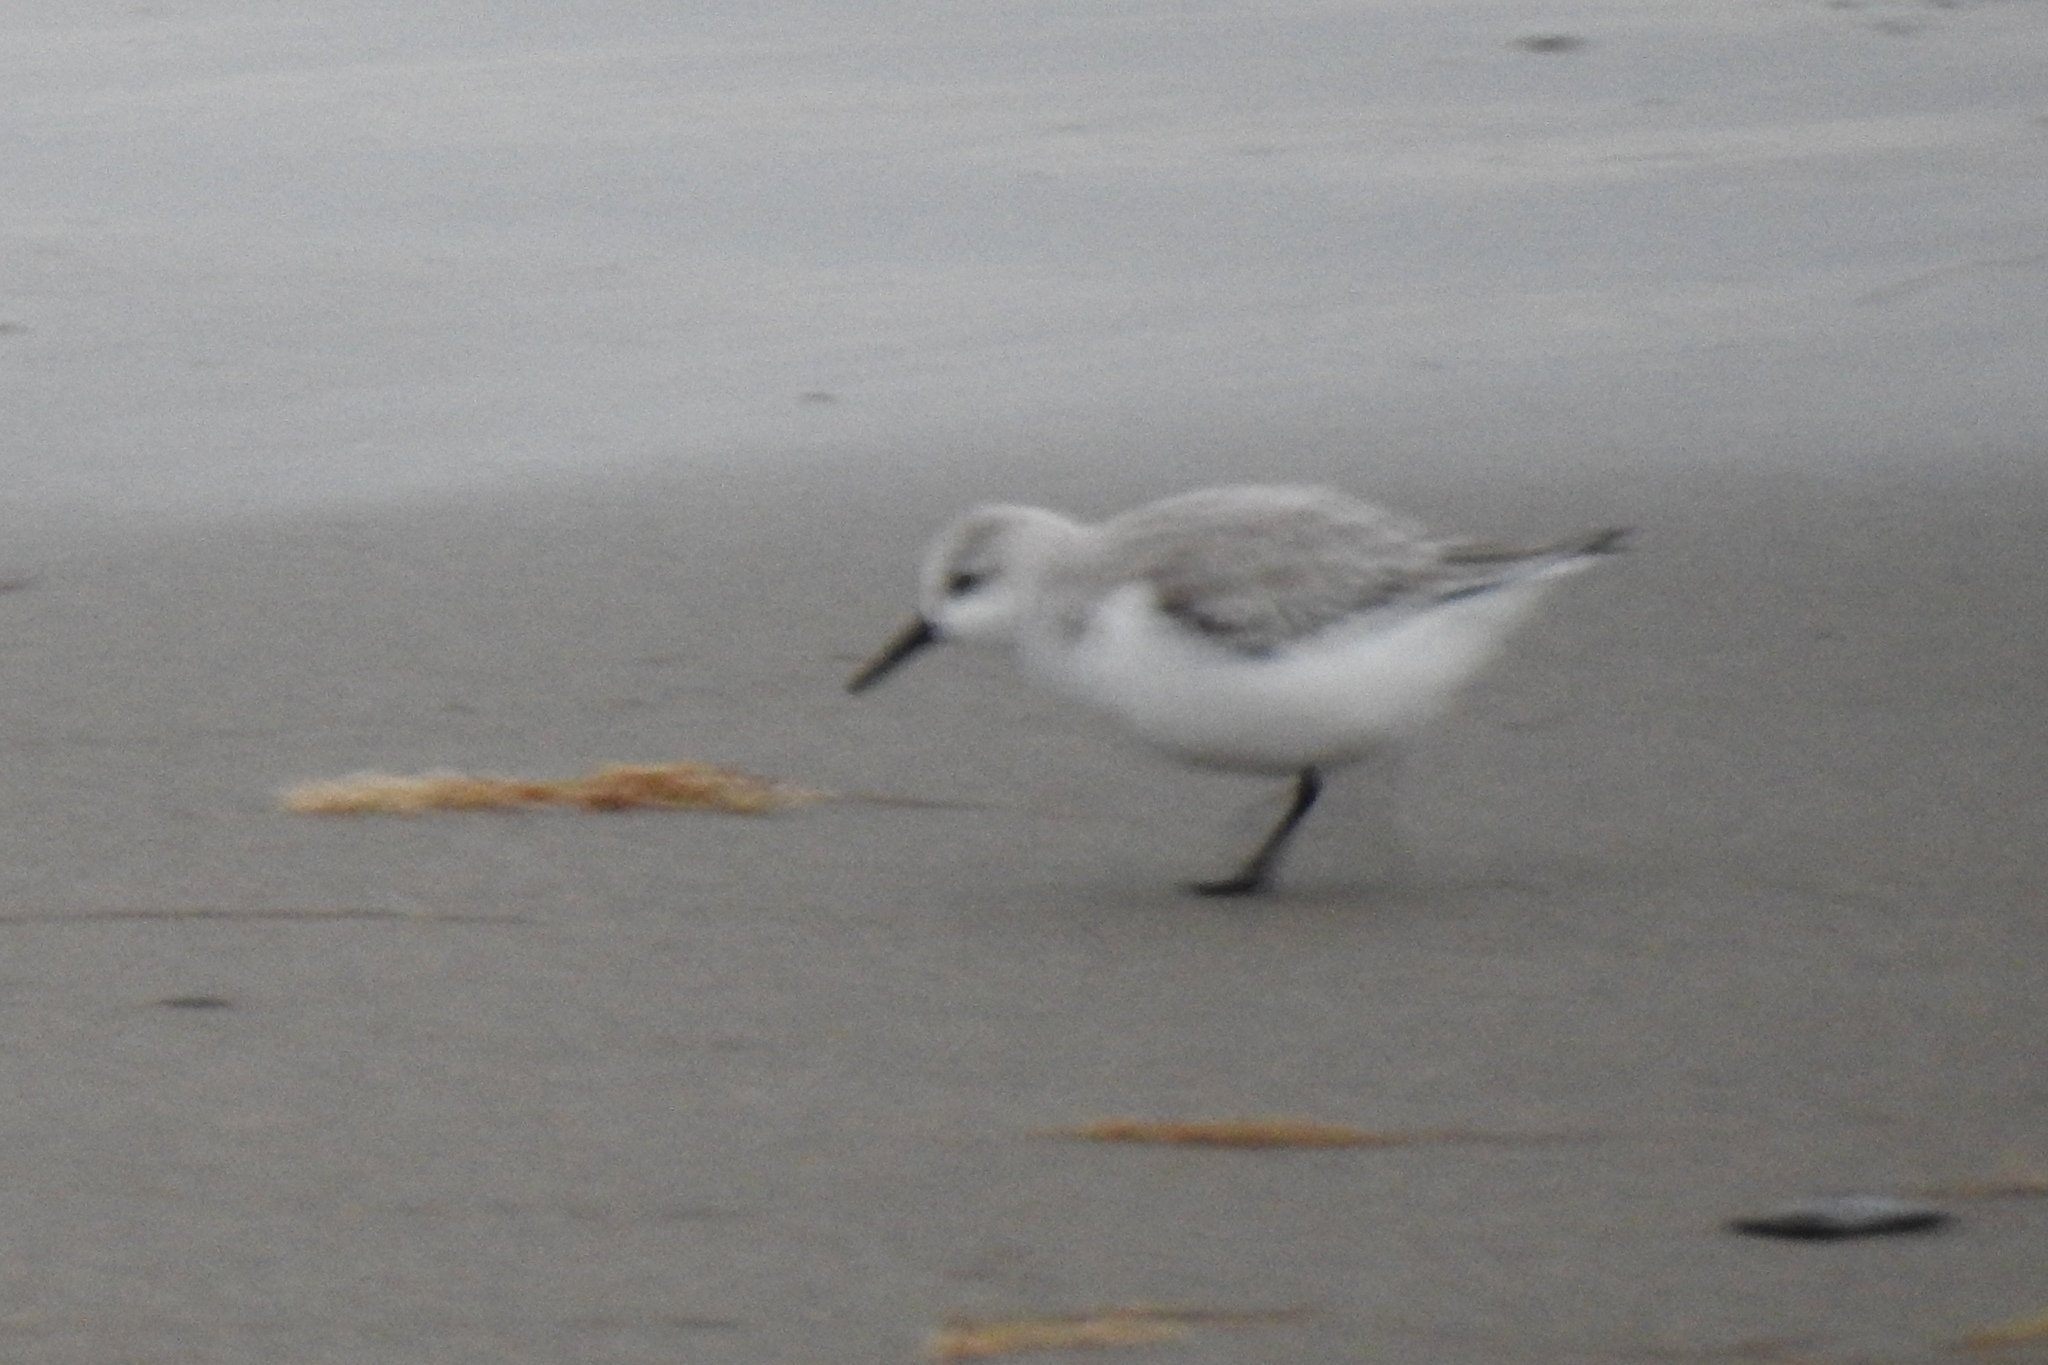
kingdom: Animalia
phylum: Chordata
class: Aves
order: Charadriiformes
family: Scolopacidae
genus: Calidris
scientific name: Calidris alba
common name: Sanderling
